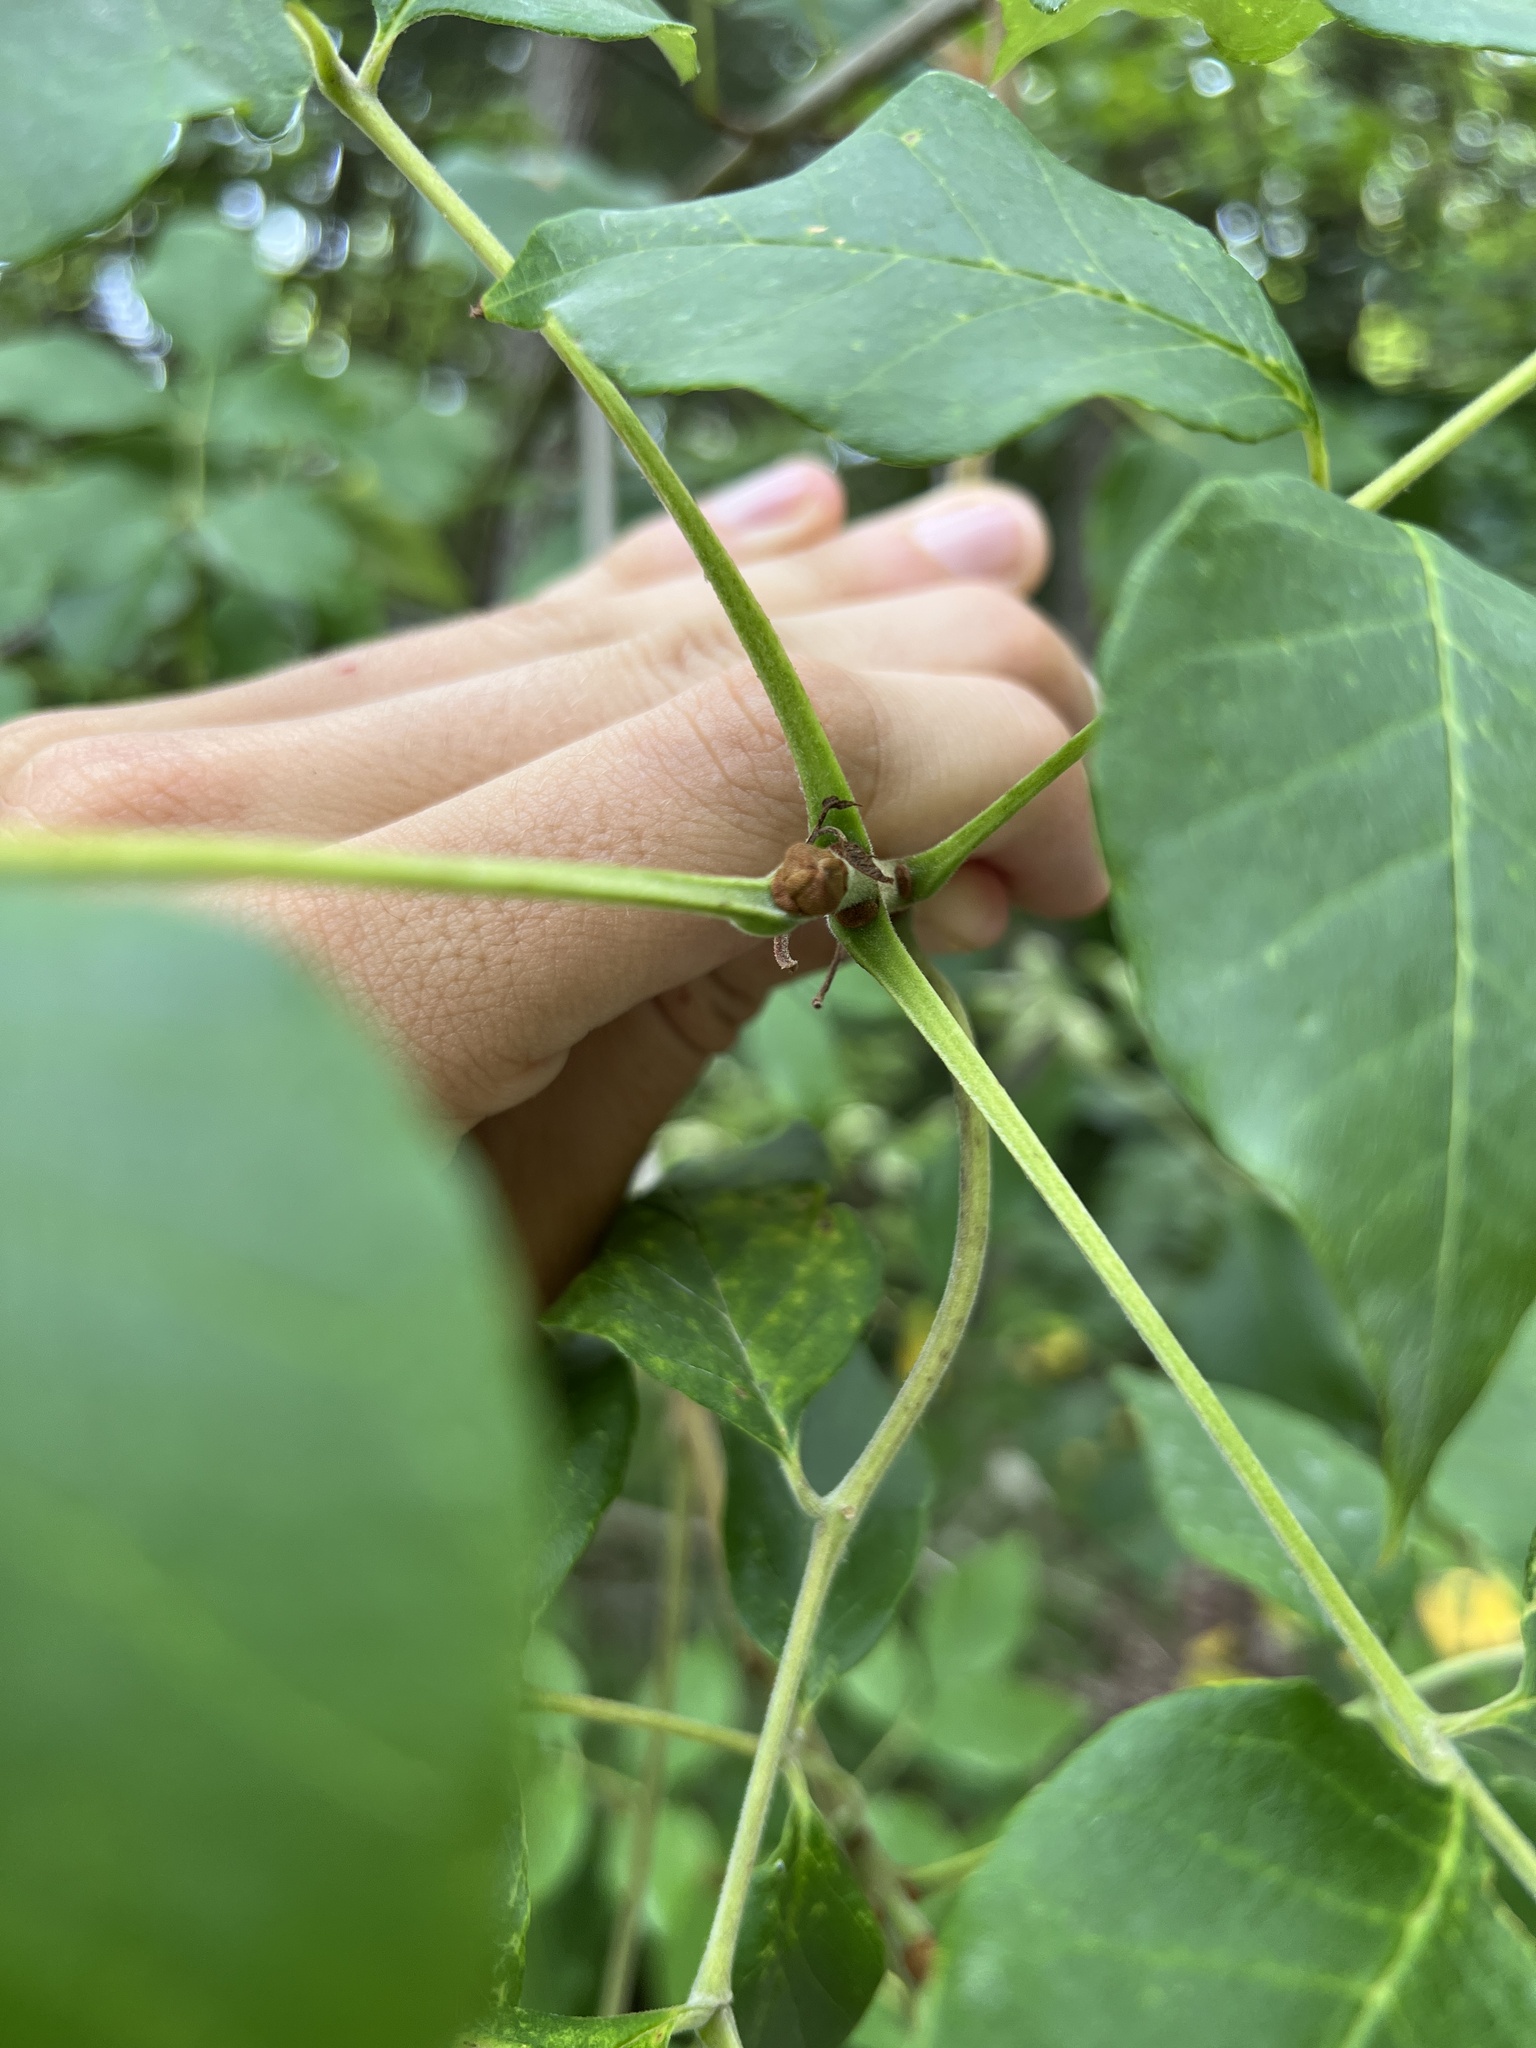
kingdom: Plantae
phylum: Tracheophyta
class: Magnoliopsida
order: Lamiales
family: Oleaceae
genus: Fraxinus
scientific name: Fraxinus profunda
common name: Pumpkin ash
